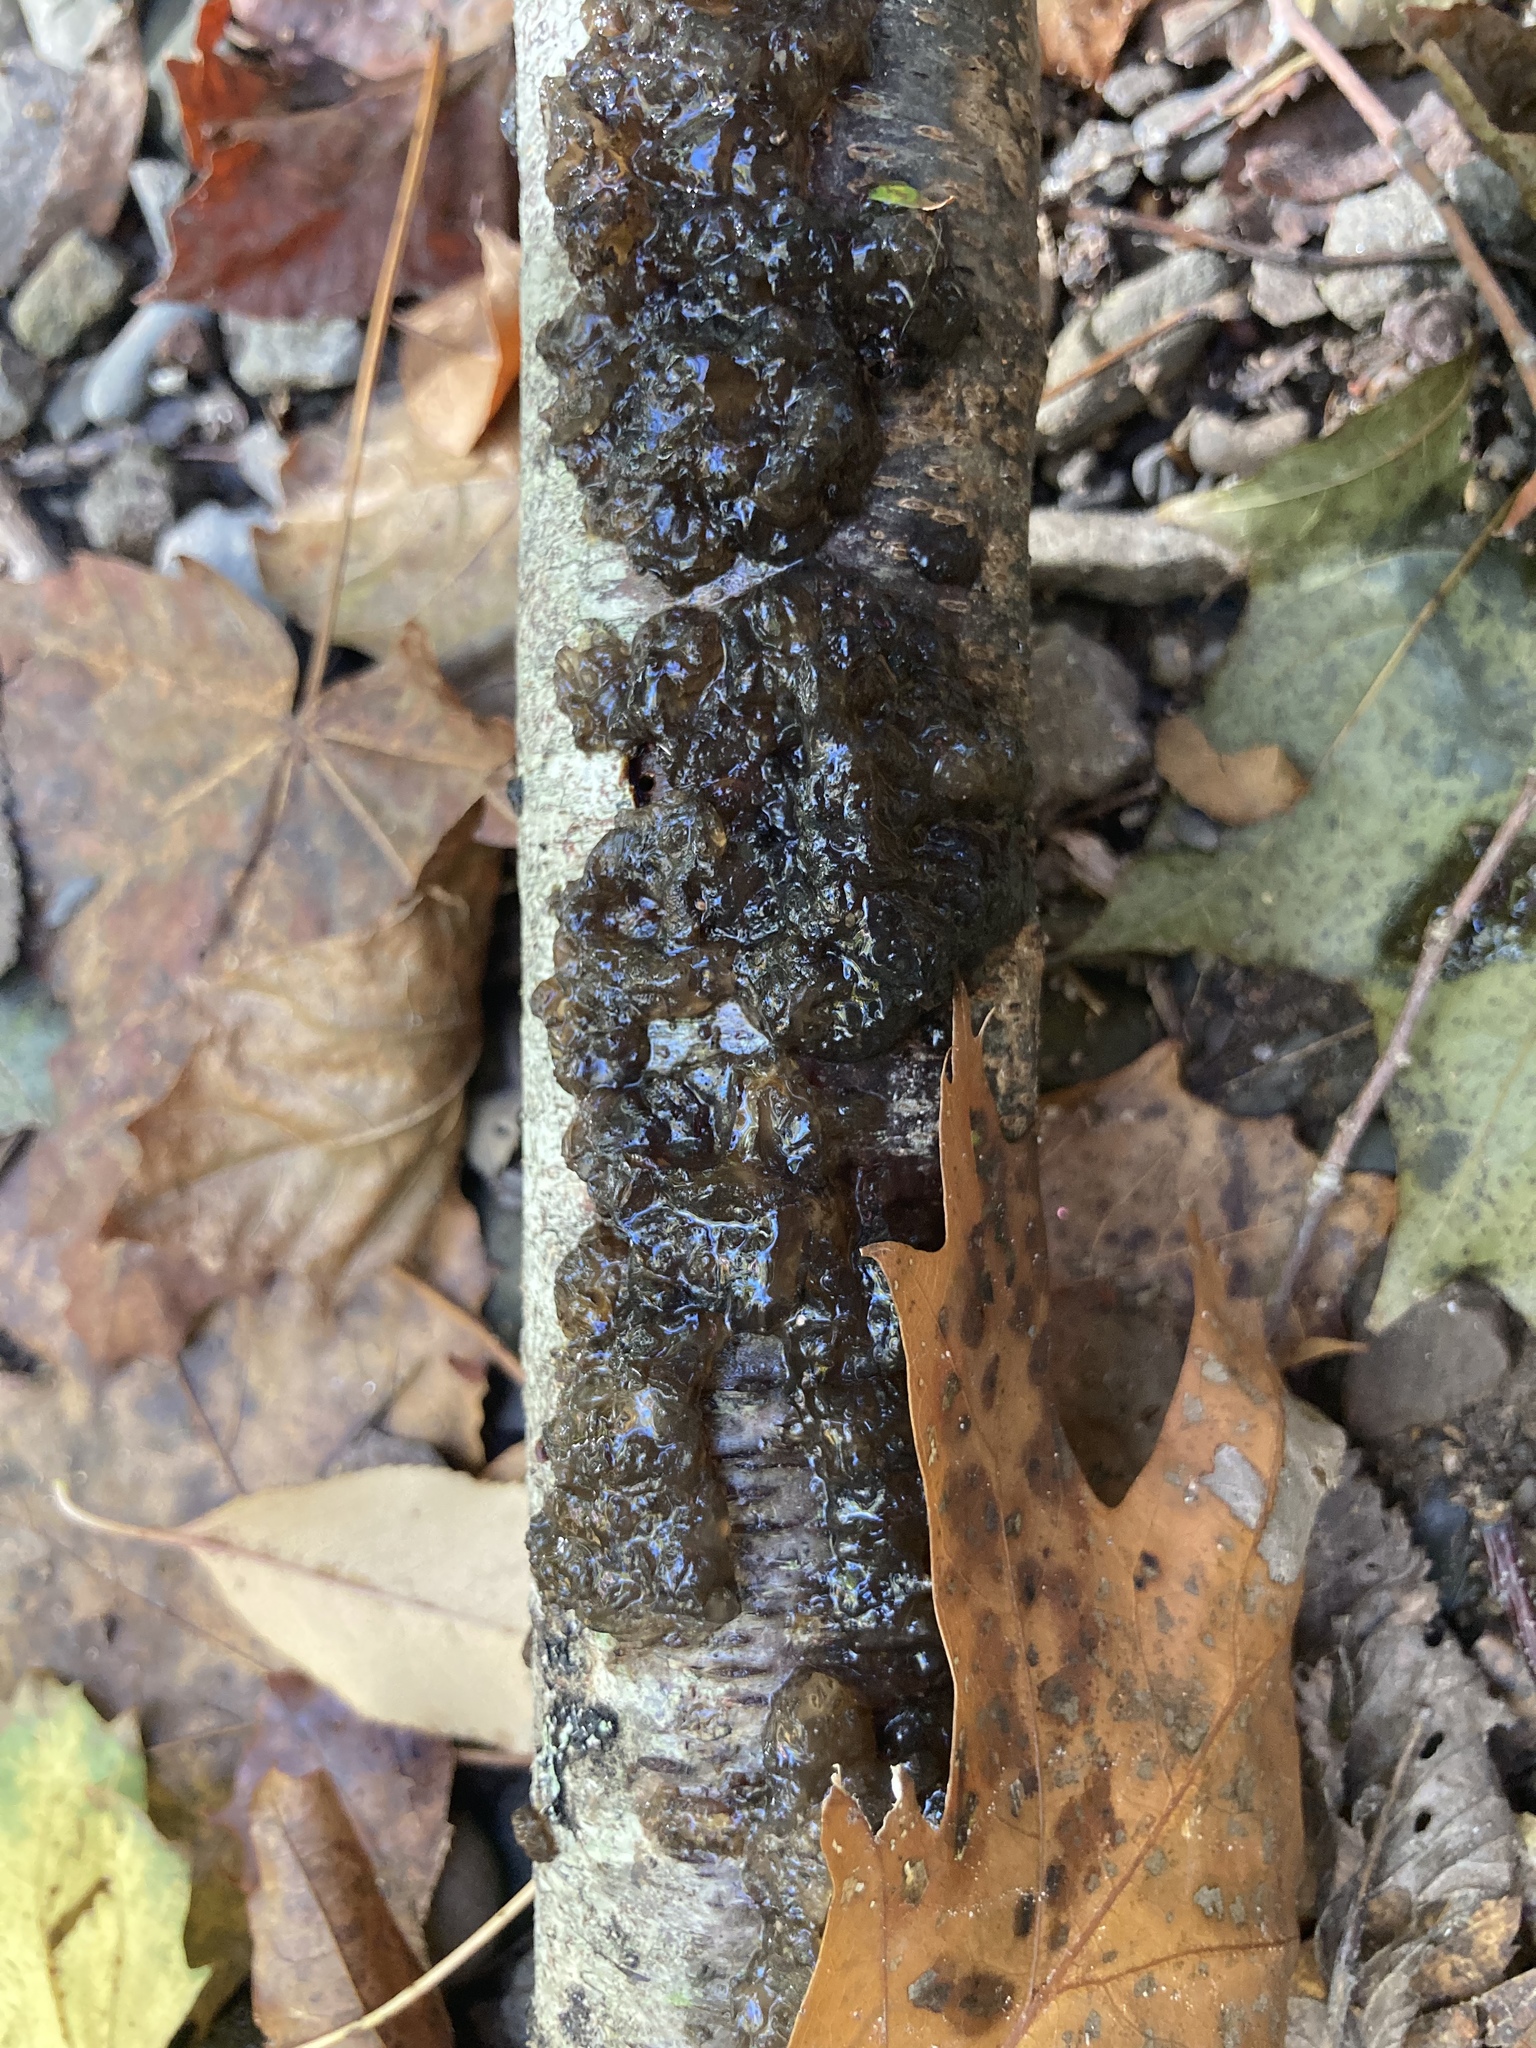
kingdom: Fungi
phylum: Basidiomycota
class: Agaricomycetes
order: Auriculariales
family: Auriculariaceae
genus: Exidia
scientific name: Exidia glandulosa
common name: Witches' butter
